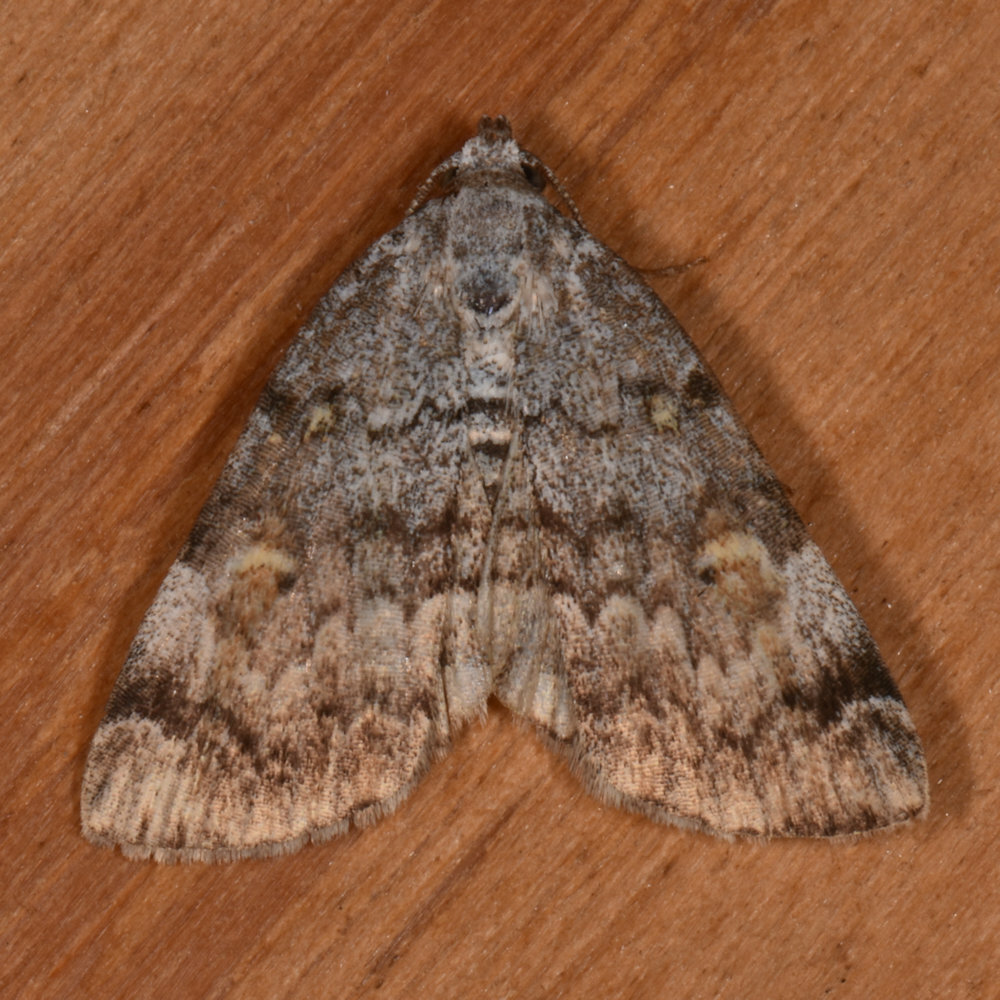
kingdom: Animalia
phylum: Arthropoda
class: Insecta
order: Lepidoptera
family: Erebidae
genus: Idia
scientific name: Idia americalis
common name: American idia moth
